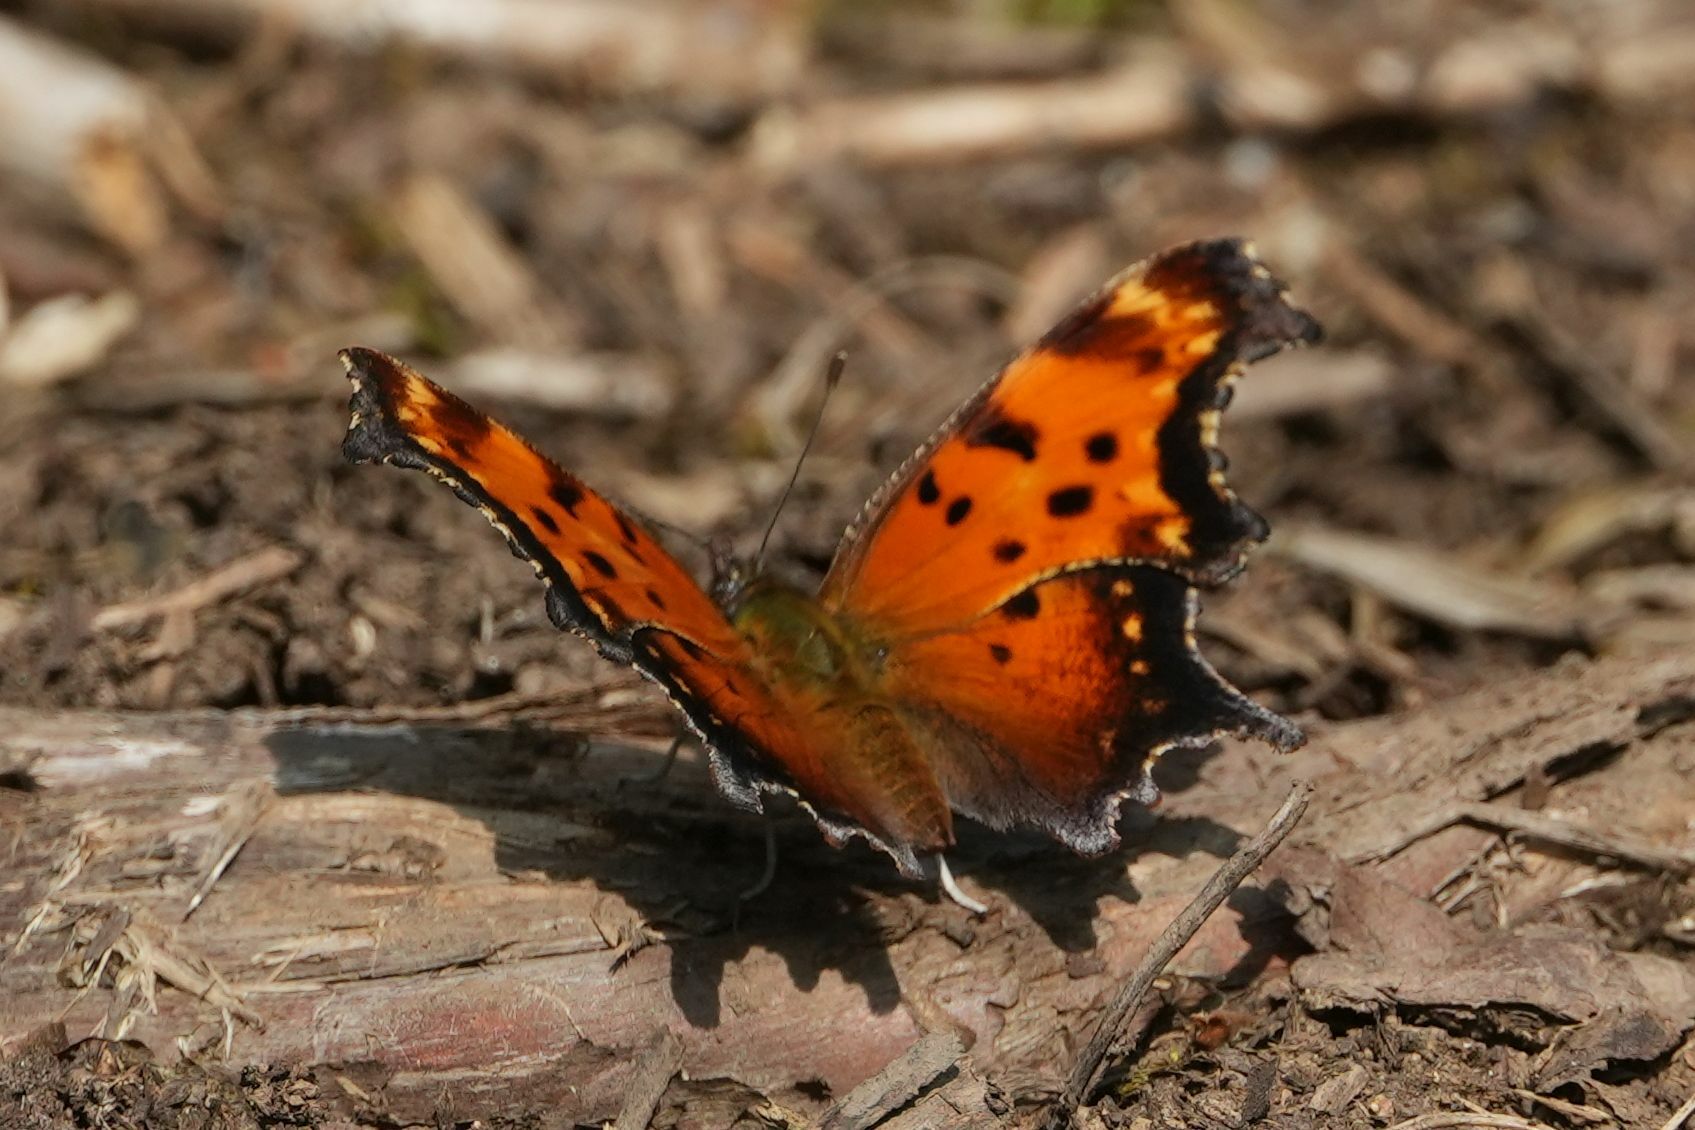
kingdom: Animalia
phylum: Arthropoda
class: Insecta
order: Lepidoptera
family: Nymphalidae
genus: Polygonia
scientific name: Polygonia progne
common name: Gray comma
